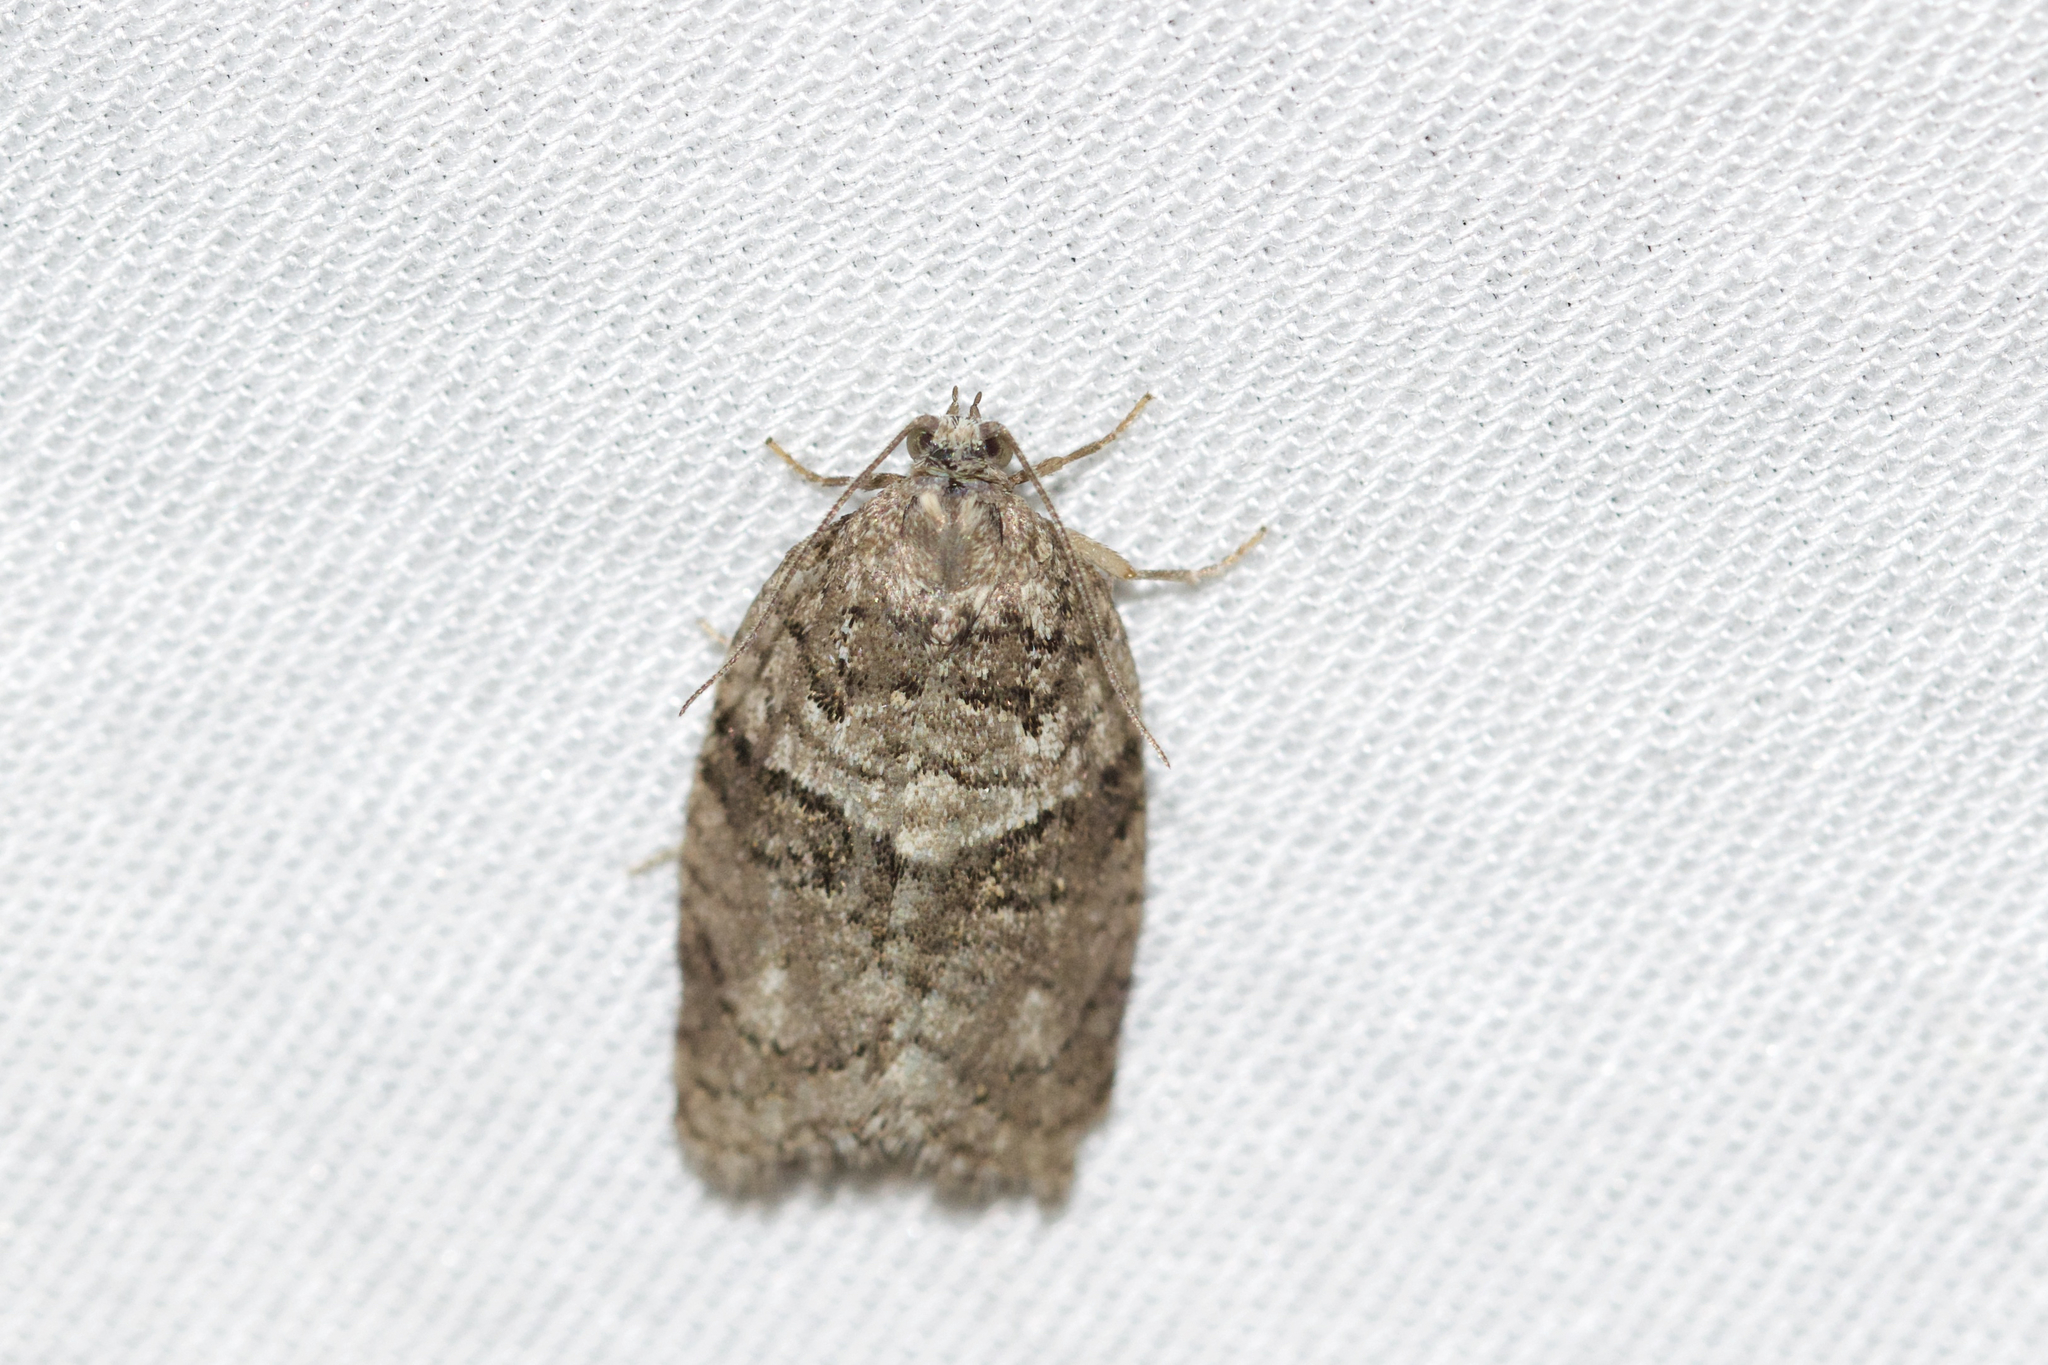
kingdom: Animalia
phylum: Arthropoda
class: Insecta
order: Lepidoptera
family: Tortricidae
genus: Syndemis
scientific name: Syndemis afflictana
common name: Gray leafroller moth
